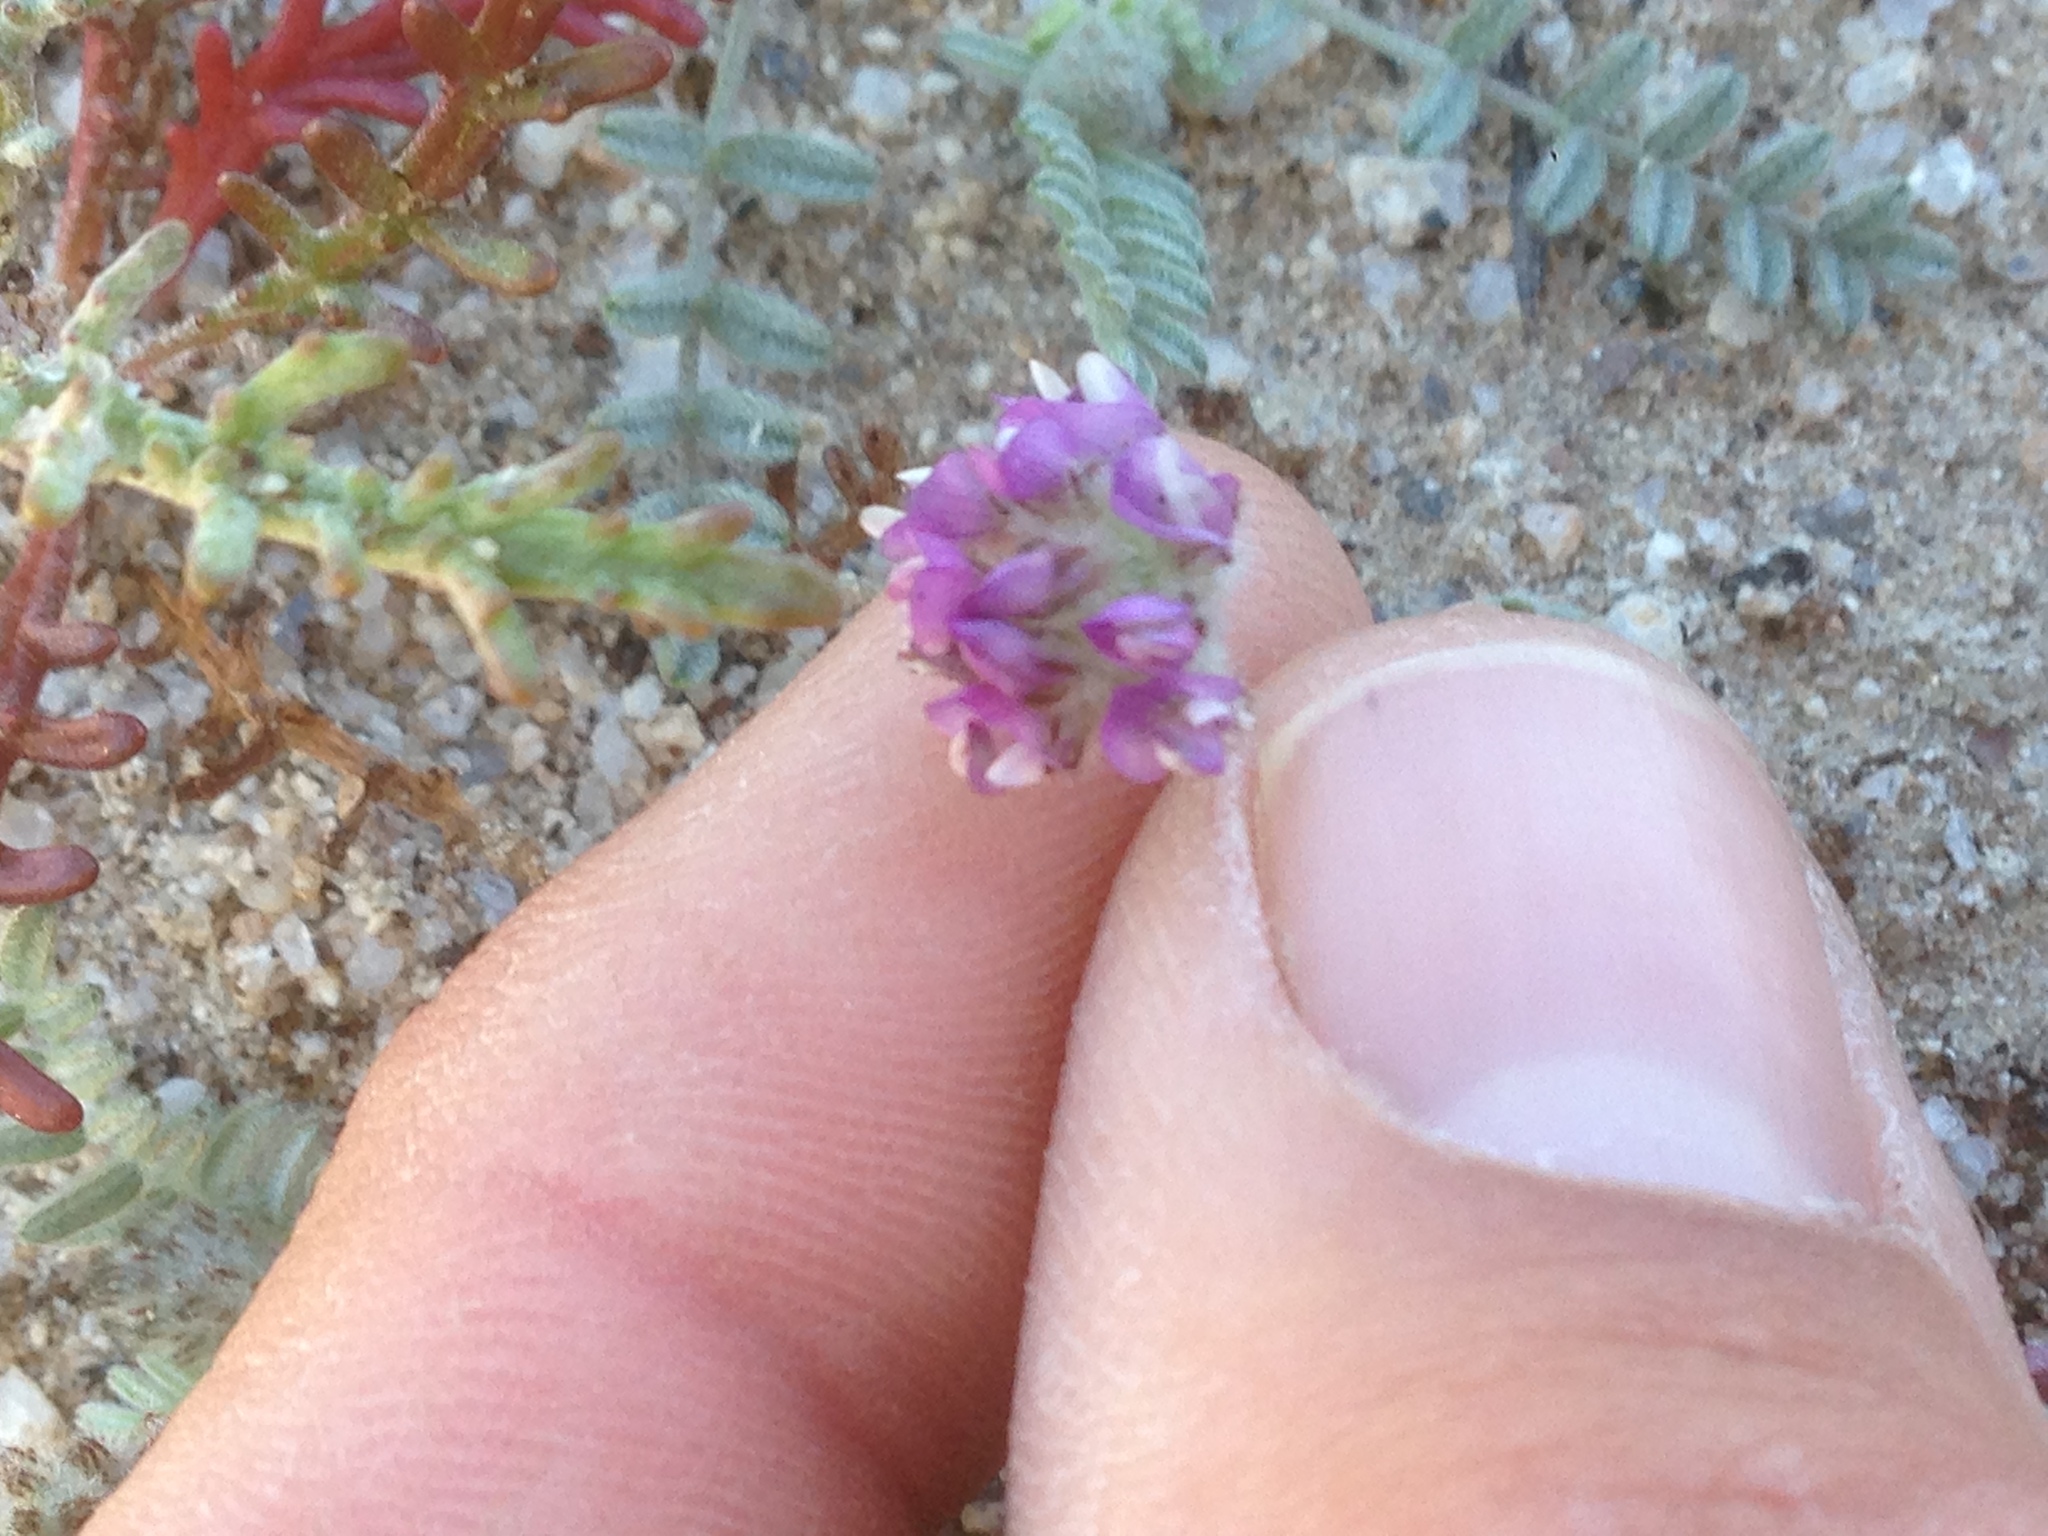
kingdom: Plantae
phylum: Tracheophyta
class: Magnoliopsida
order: Fabales
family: Fabaceae
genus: Astragalus
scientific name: Astragalus didymocarpus
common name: Dwarf white milkvetch
